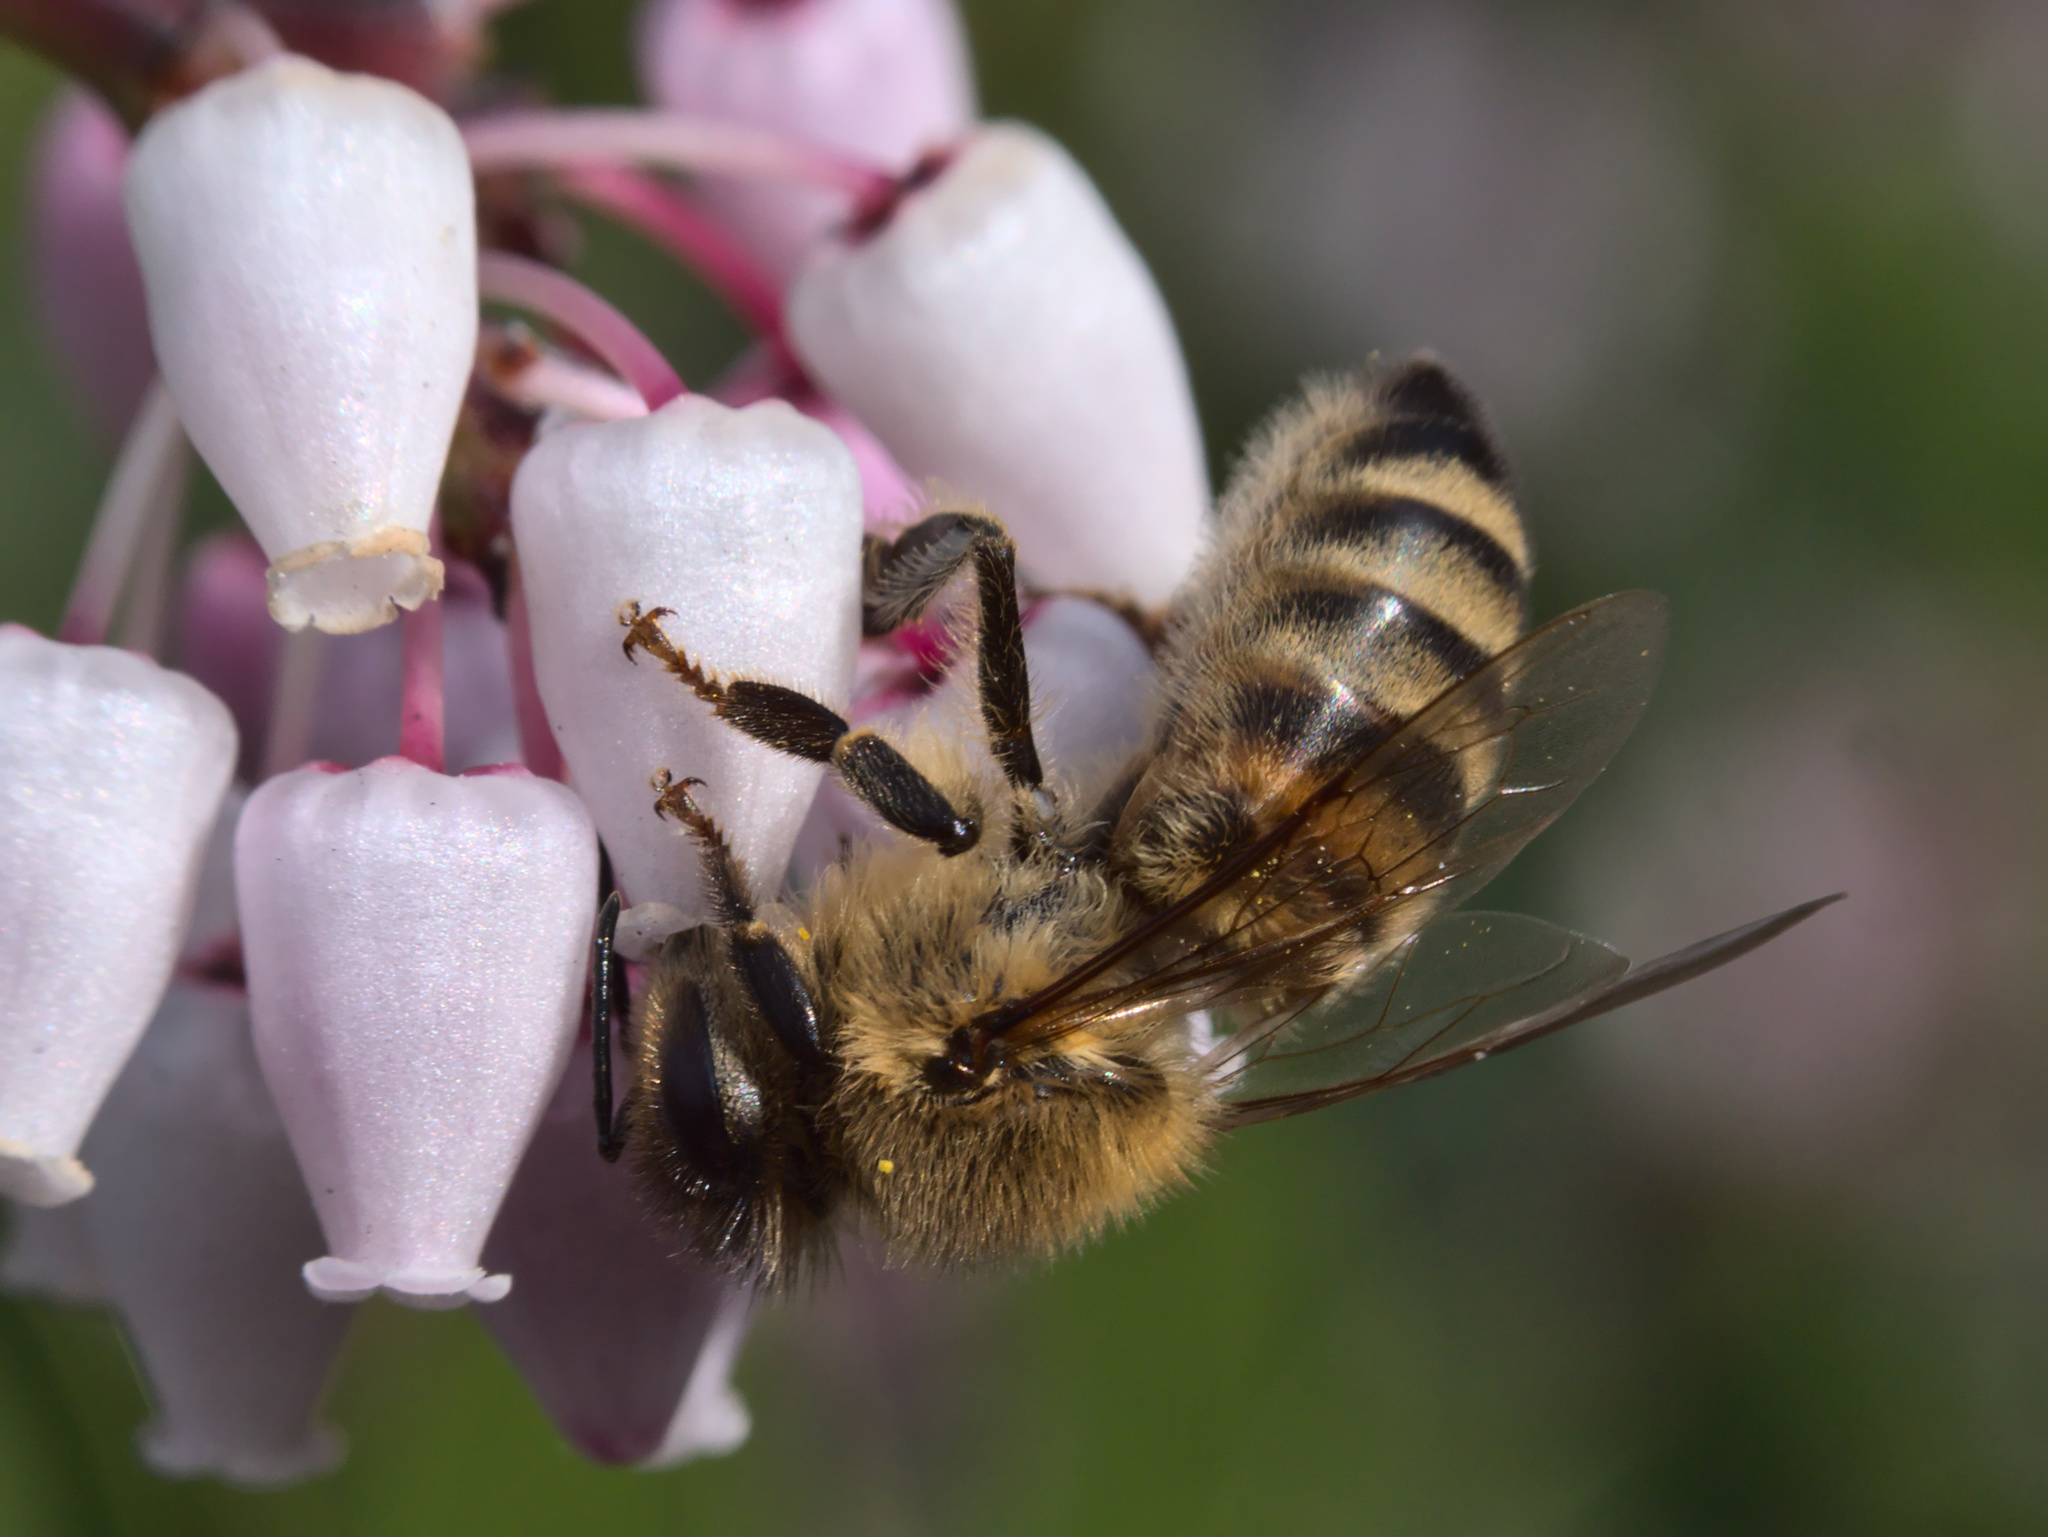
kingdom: Animalia
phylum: Arthropoda
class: Insecta
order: Hymenoptera
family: Apidae
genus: Apis
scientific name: Apis mellifera
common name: Honey bee
